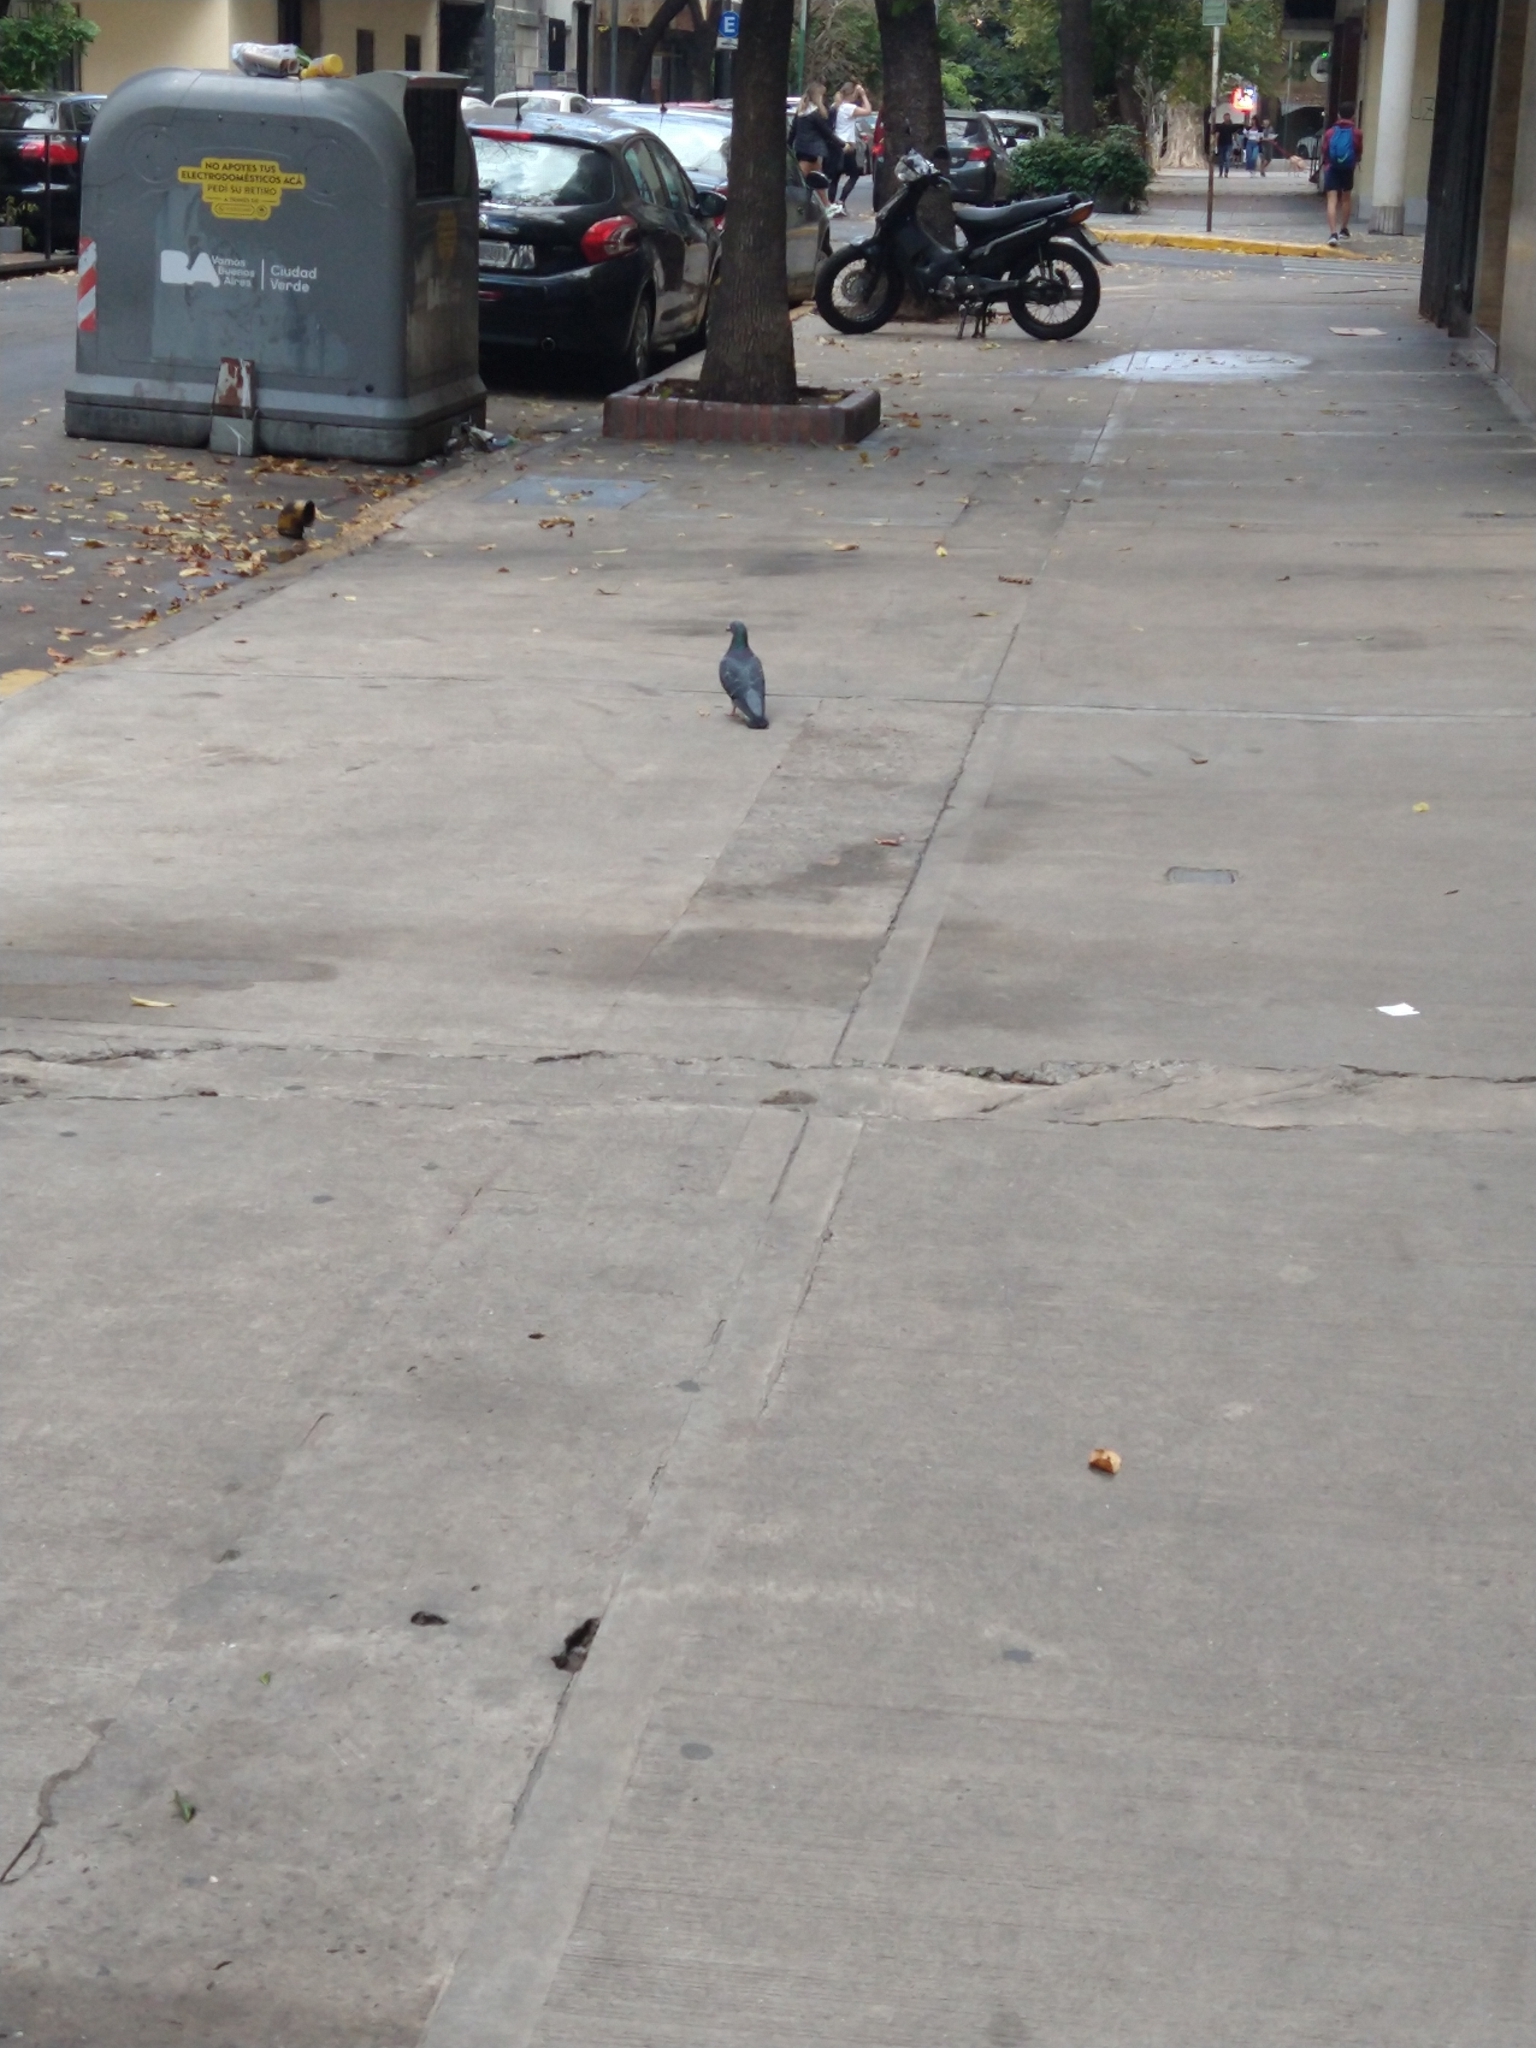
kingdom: Animalia
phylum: Chordata
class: Aves
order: Columbiformes
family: Columbidae
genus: Columba
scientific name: Columba livia
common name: Rock pigeon
